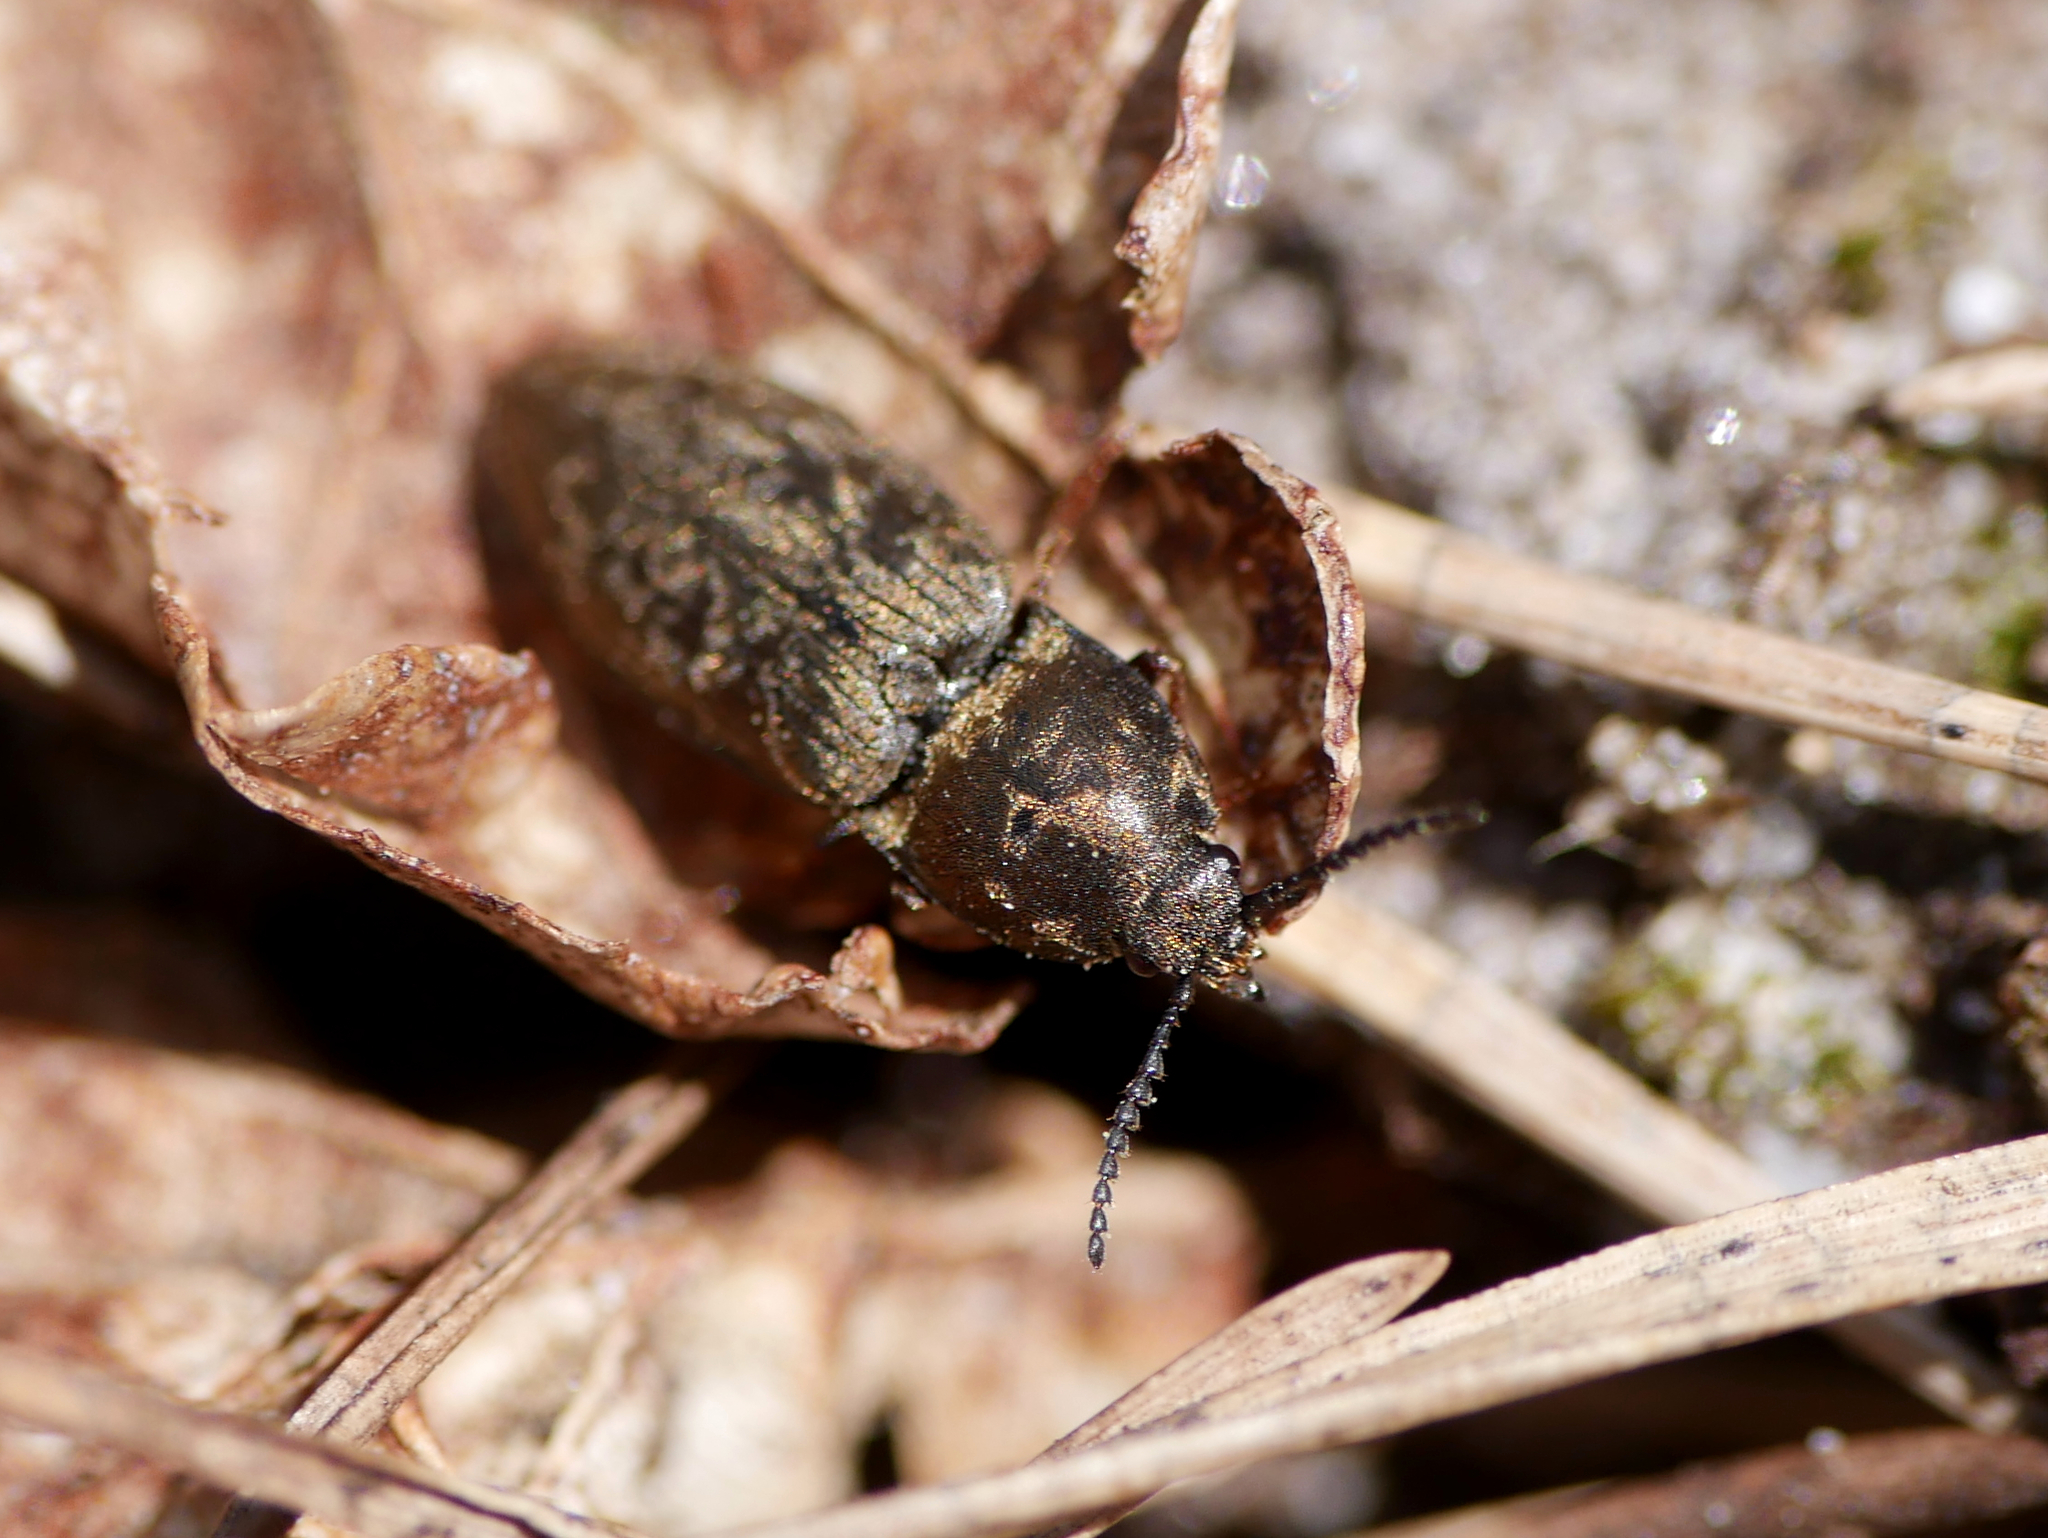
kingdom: Animalia
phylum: Arthropoda
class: Insecta
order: Coleoptera
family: Elateridae
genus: Prosternon
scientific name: Prosternon tessellatum
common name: Chequered click beetle
